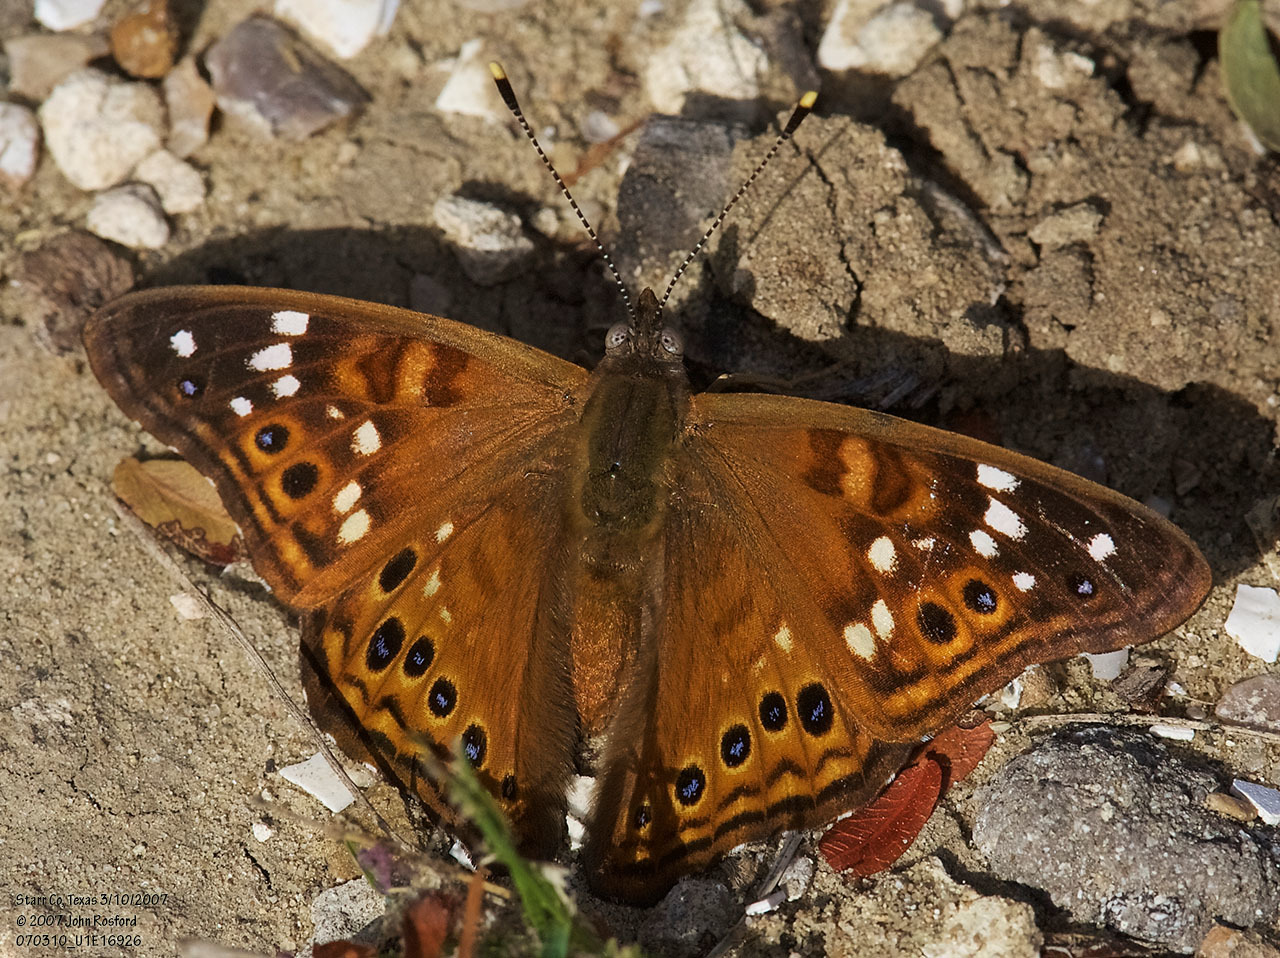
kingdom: Animalia
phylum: Arthropoda
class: Insecta
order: Lepidoptera
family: Nymphalidae
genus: Asterocampa
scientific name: Asterocampa leilia
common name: Empress leilia
